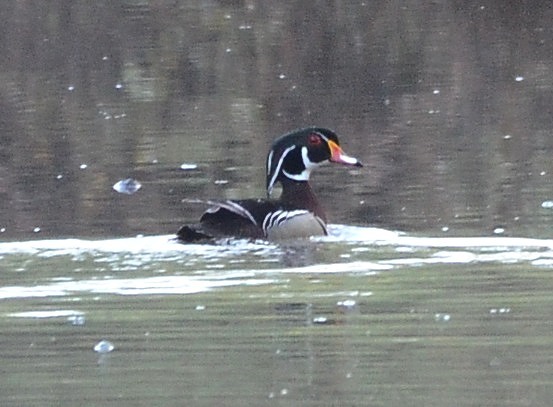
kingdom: Animalia
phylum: Chordata
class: Aves
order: Anseriformes
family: Anatidae
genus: Aix
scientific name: Aix sponsa
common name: Wood duck
